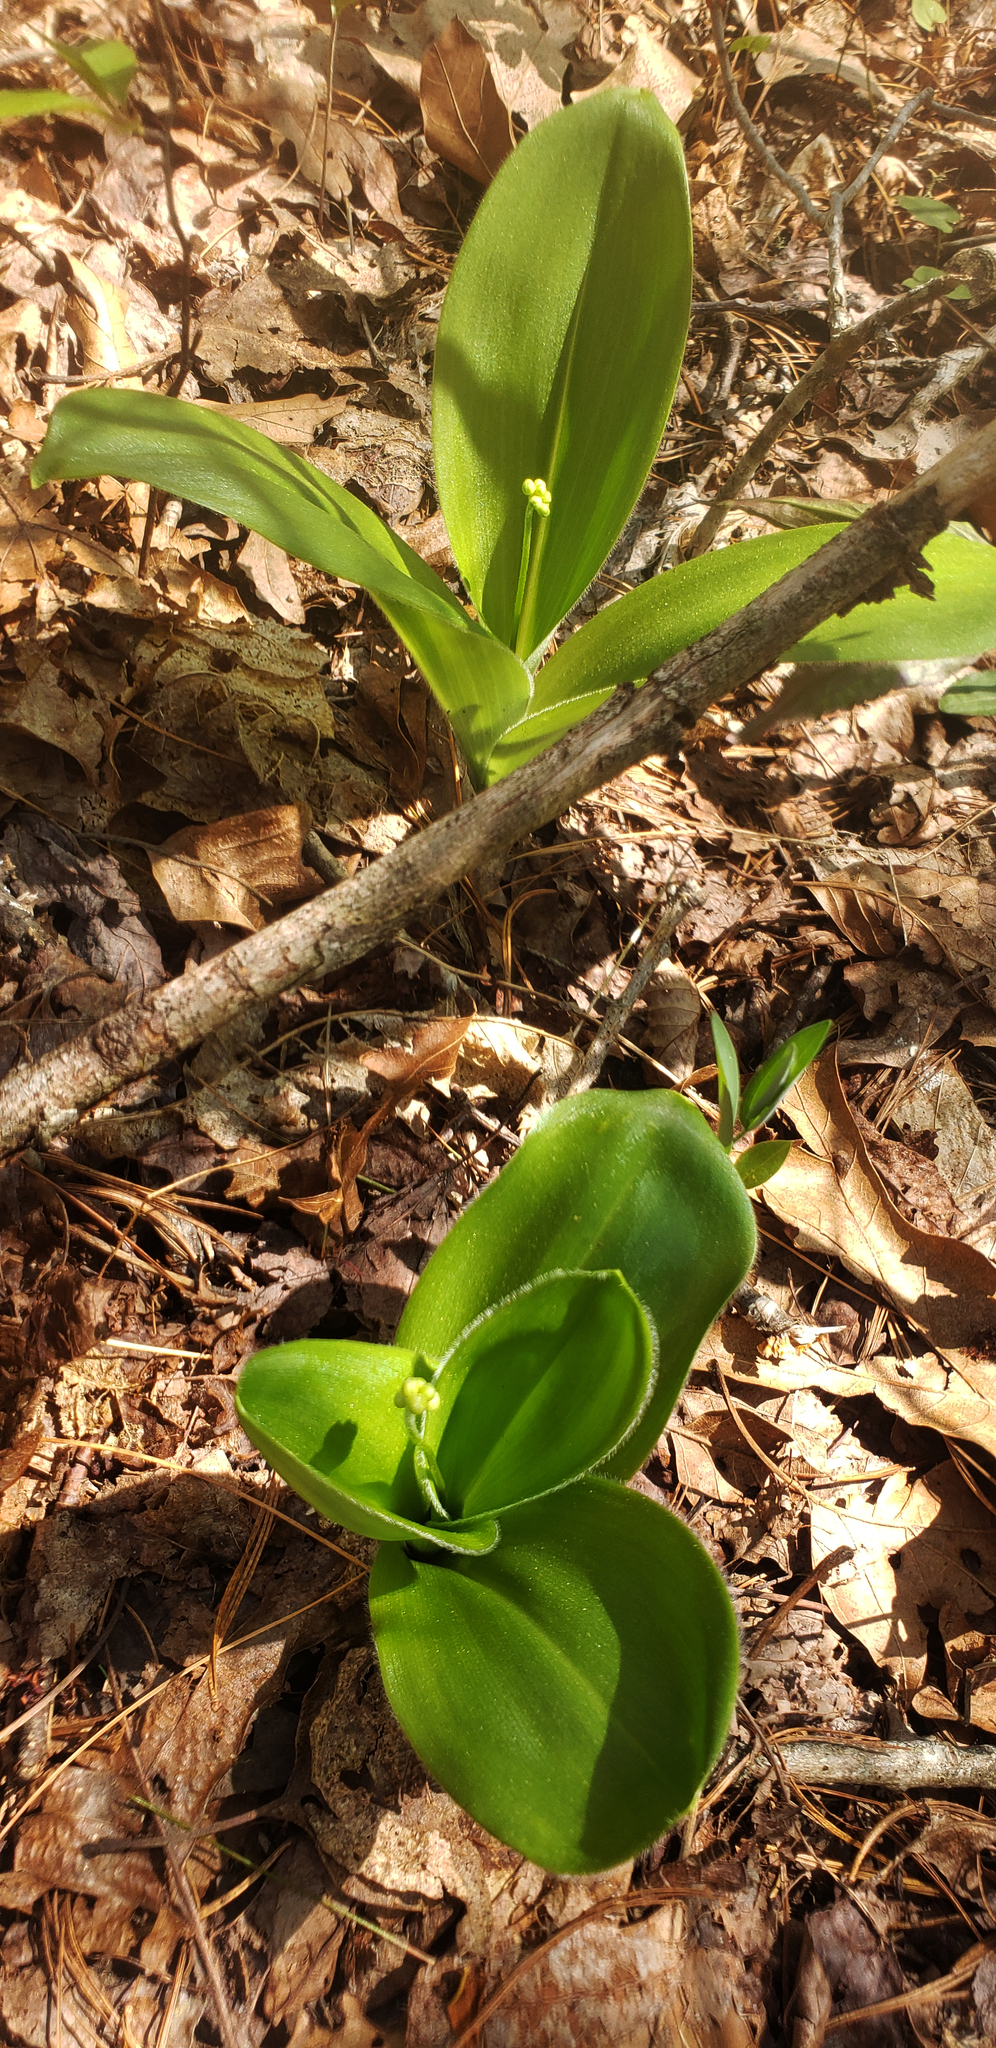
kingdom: Plantae
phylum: Tracheophyta
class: Liliopsida
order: Liliales
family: Liliaceae
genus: Clintonia
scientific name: Clintonia umbellulata
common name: Speckle wood-lily
